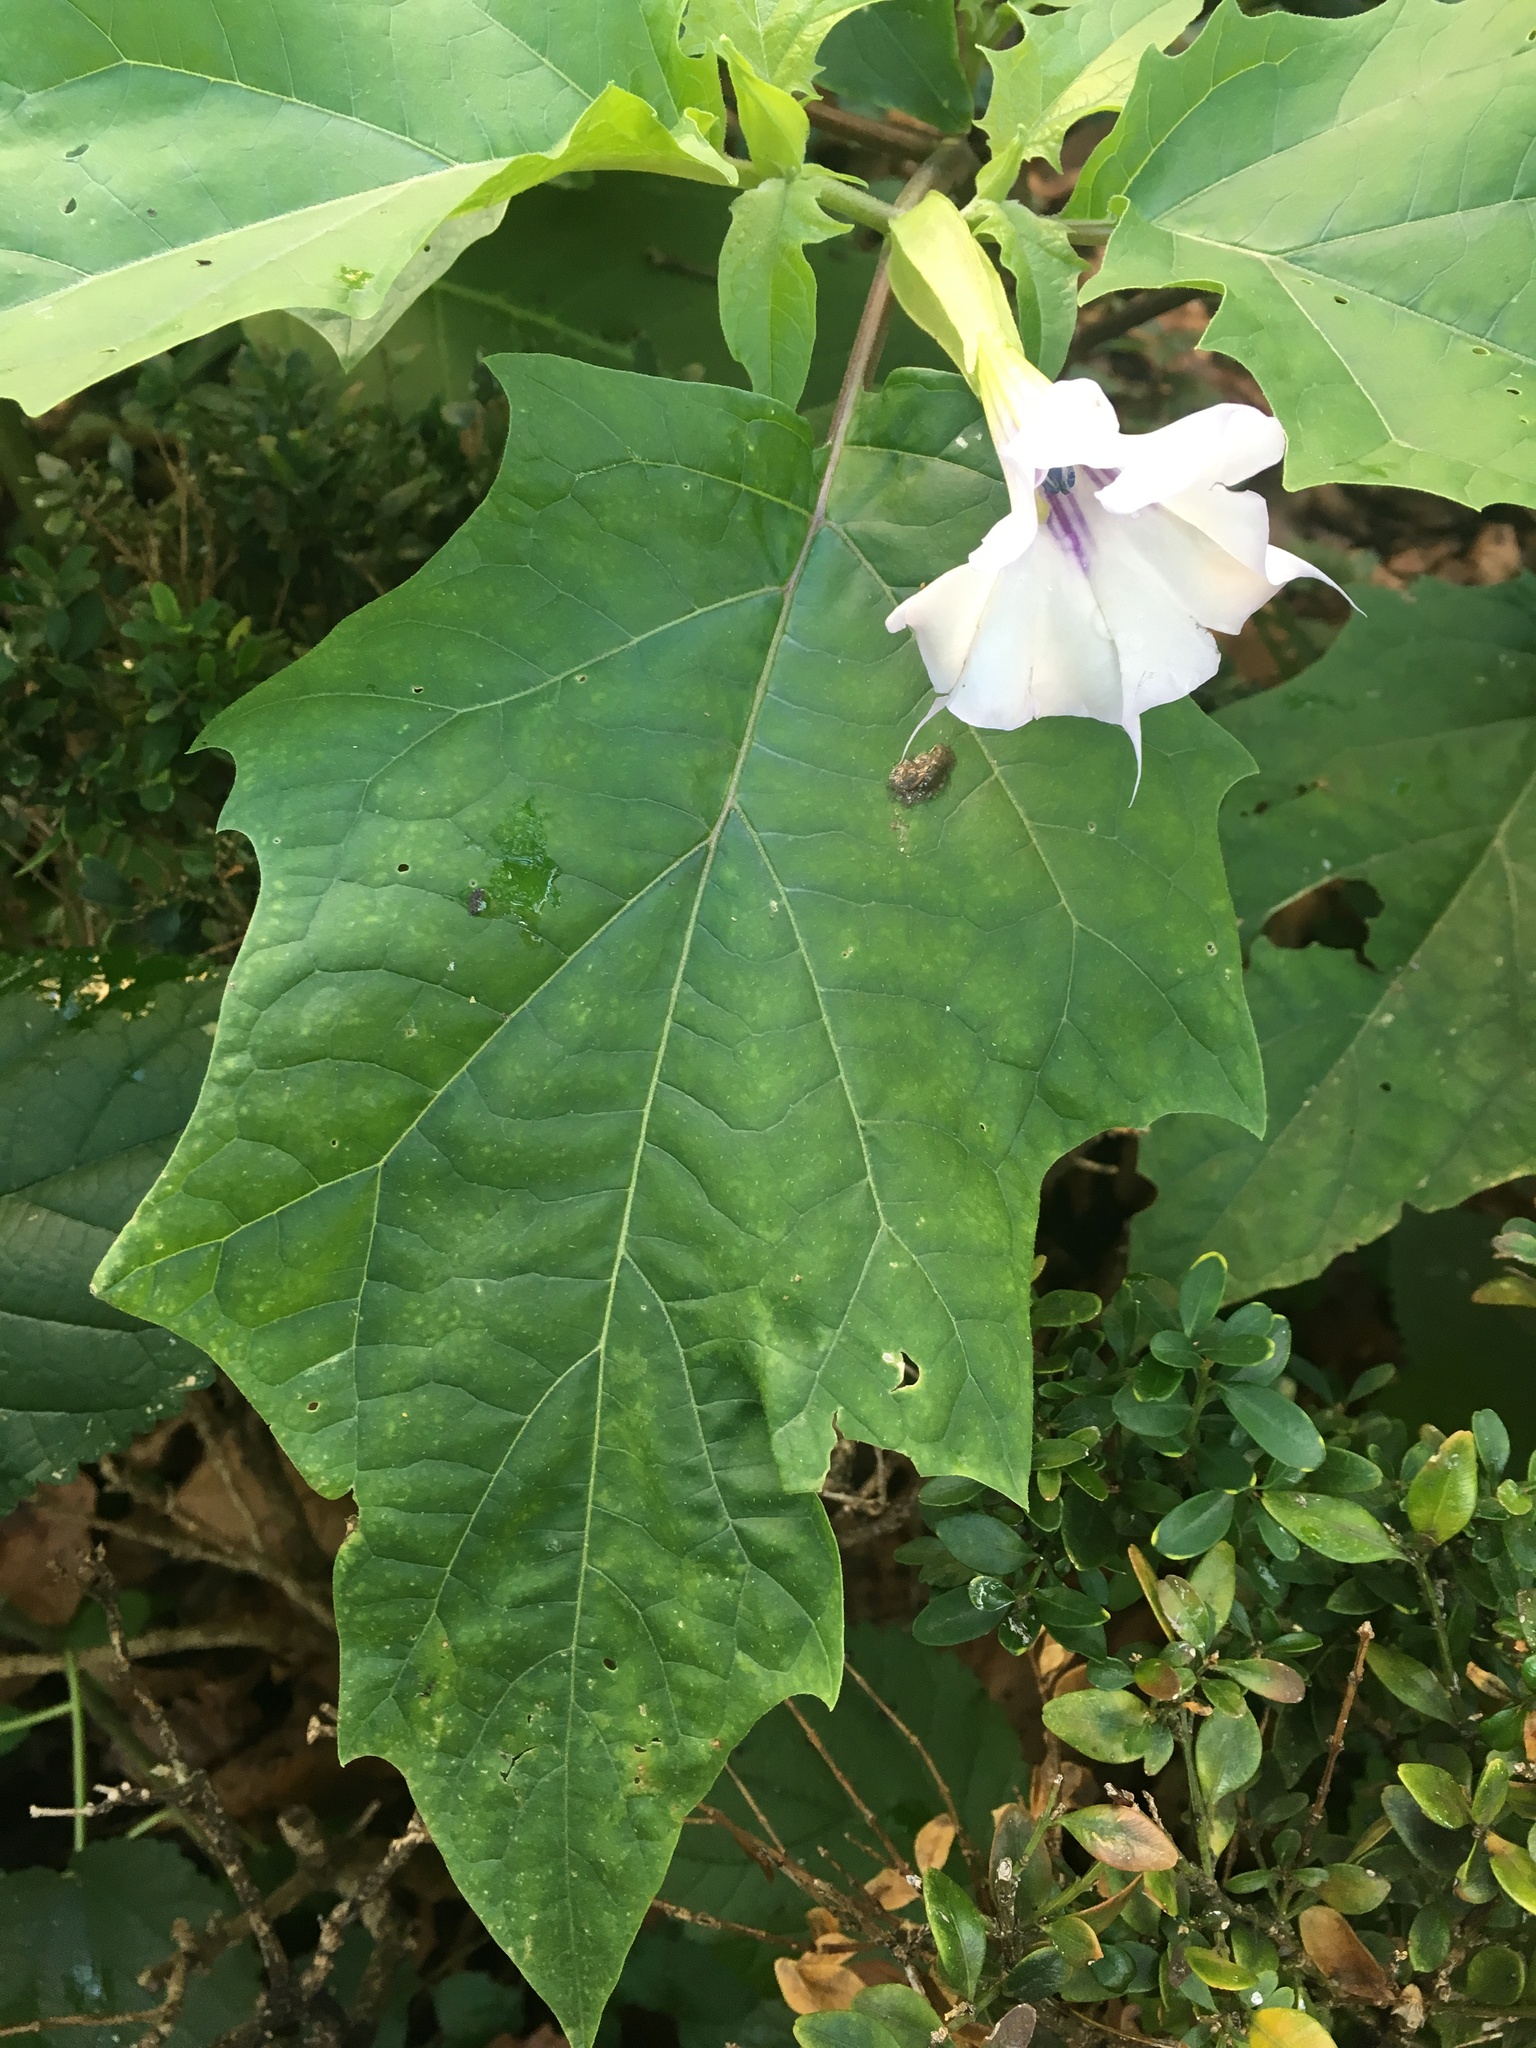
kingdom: Plantae
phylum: Tracheophyta
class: Magnoliopsida
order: Solanales
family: Solanaceae
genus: Datura
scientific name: Datura stramonium
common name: Thorn-apple
